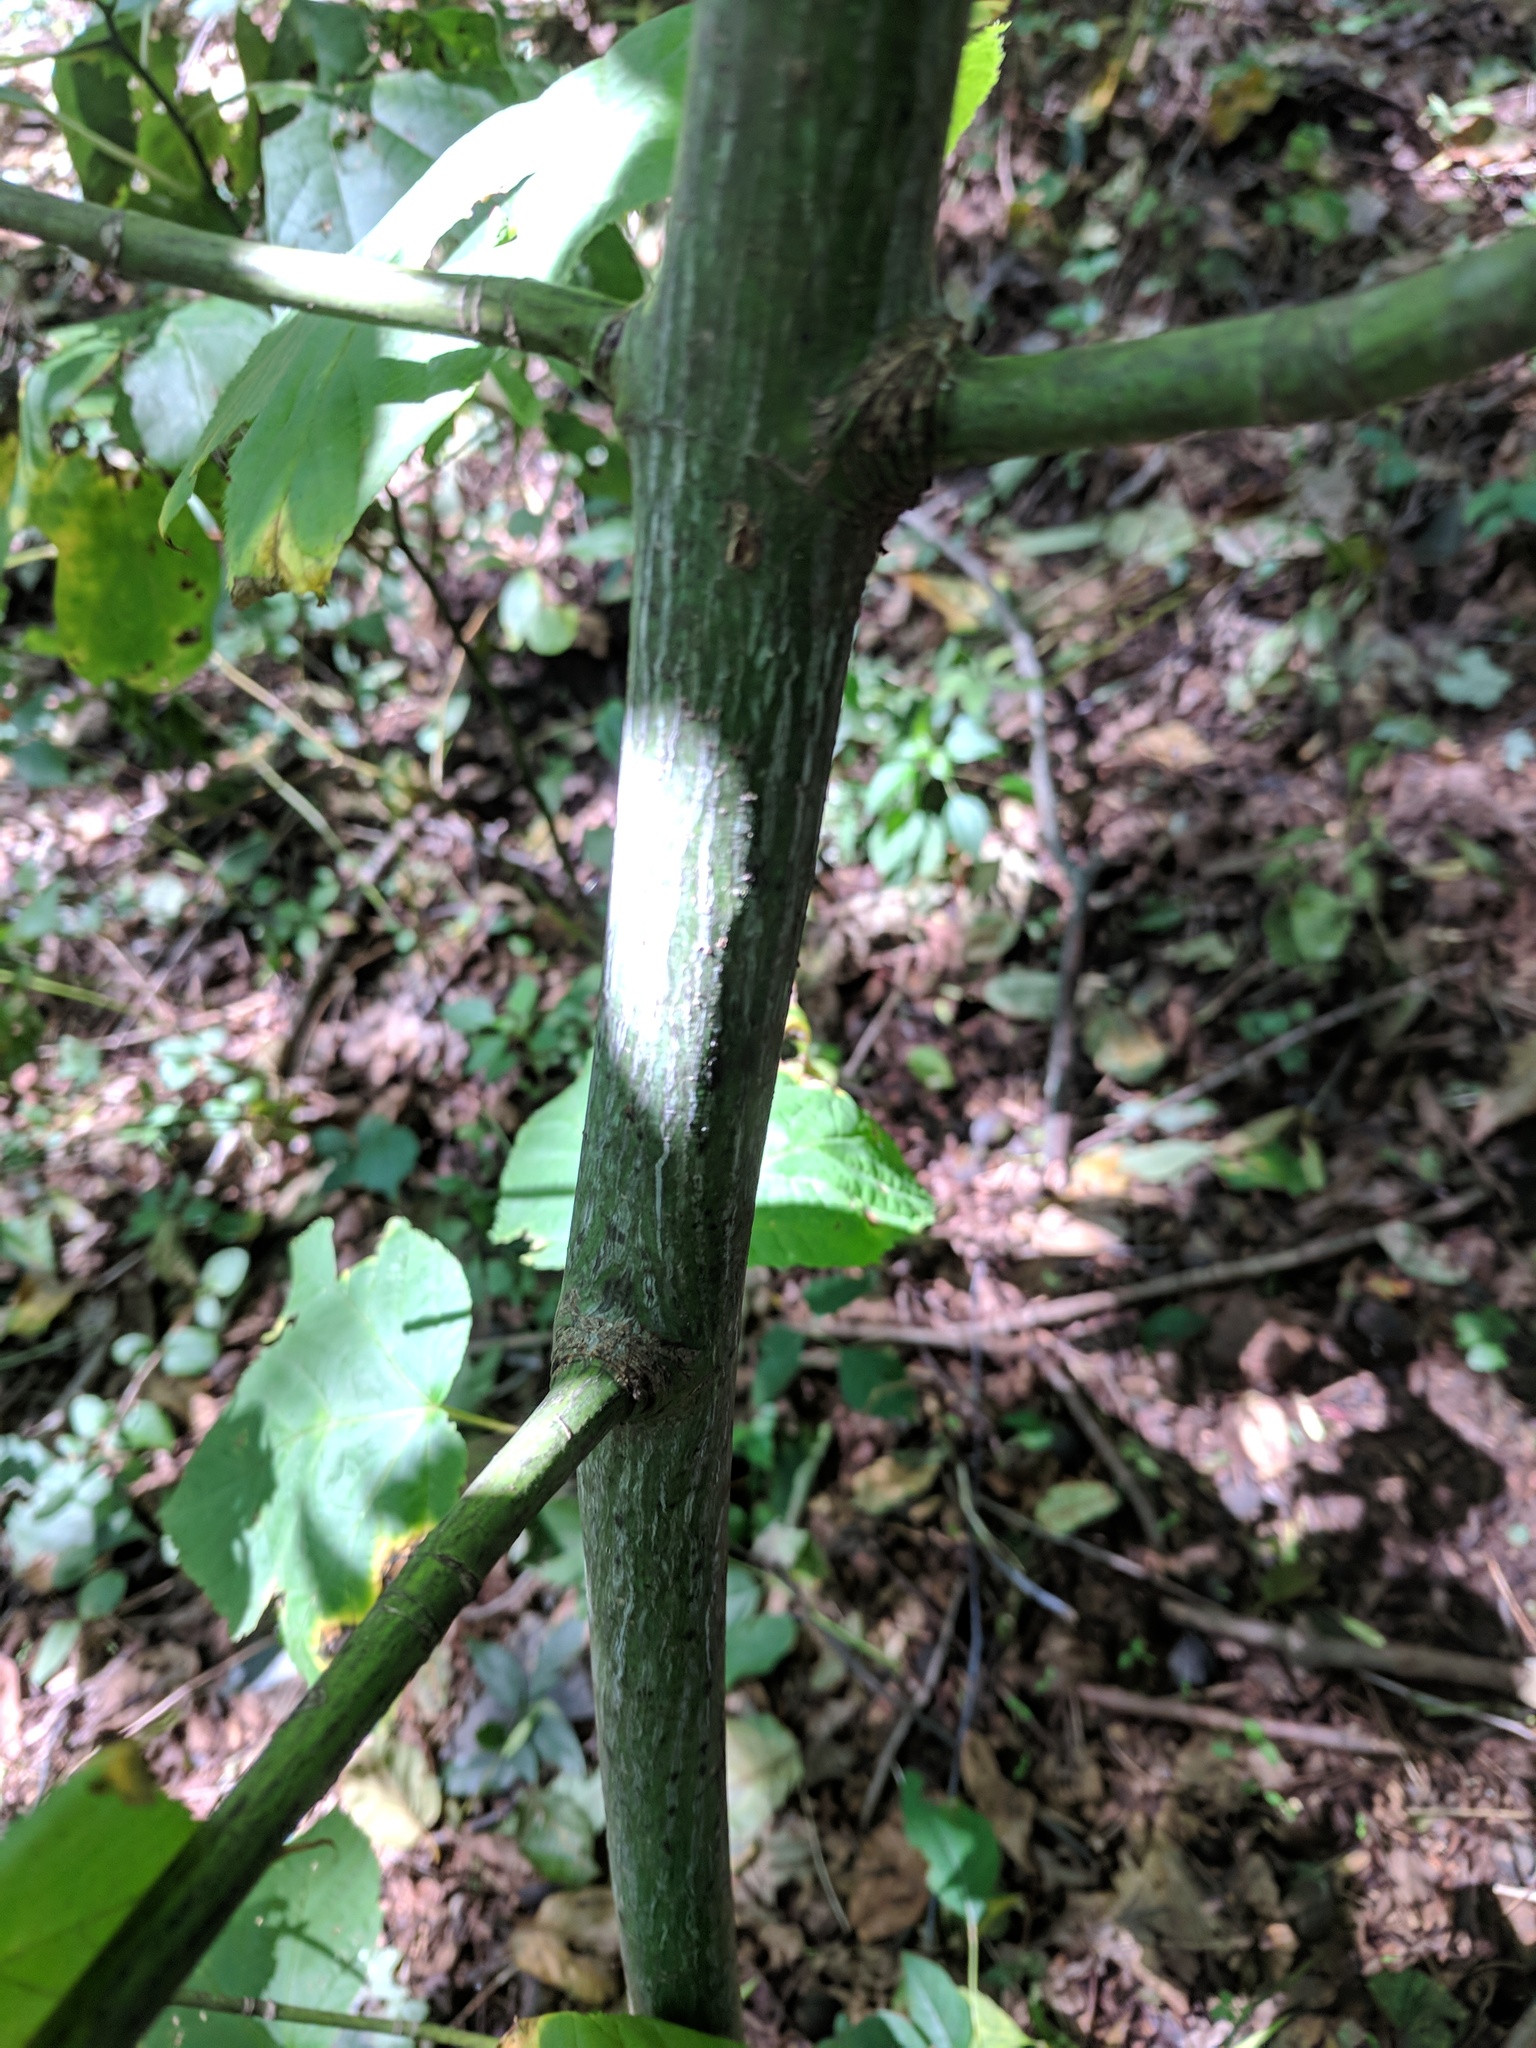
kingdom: Plantae
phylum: Tracheophyta
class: Magnoliopsida
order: Sapindales
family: Sapindaceae
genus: Acer
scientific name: Acer pensylvanicum
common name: Moosewood
